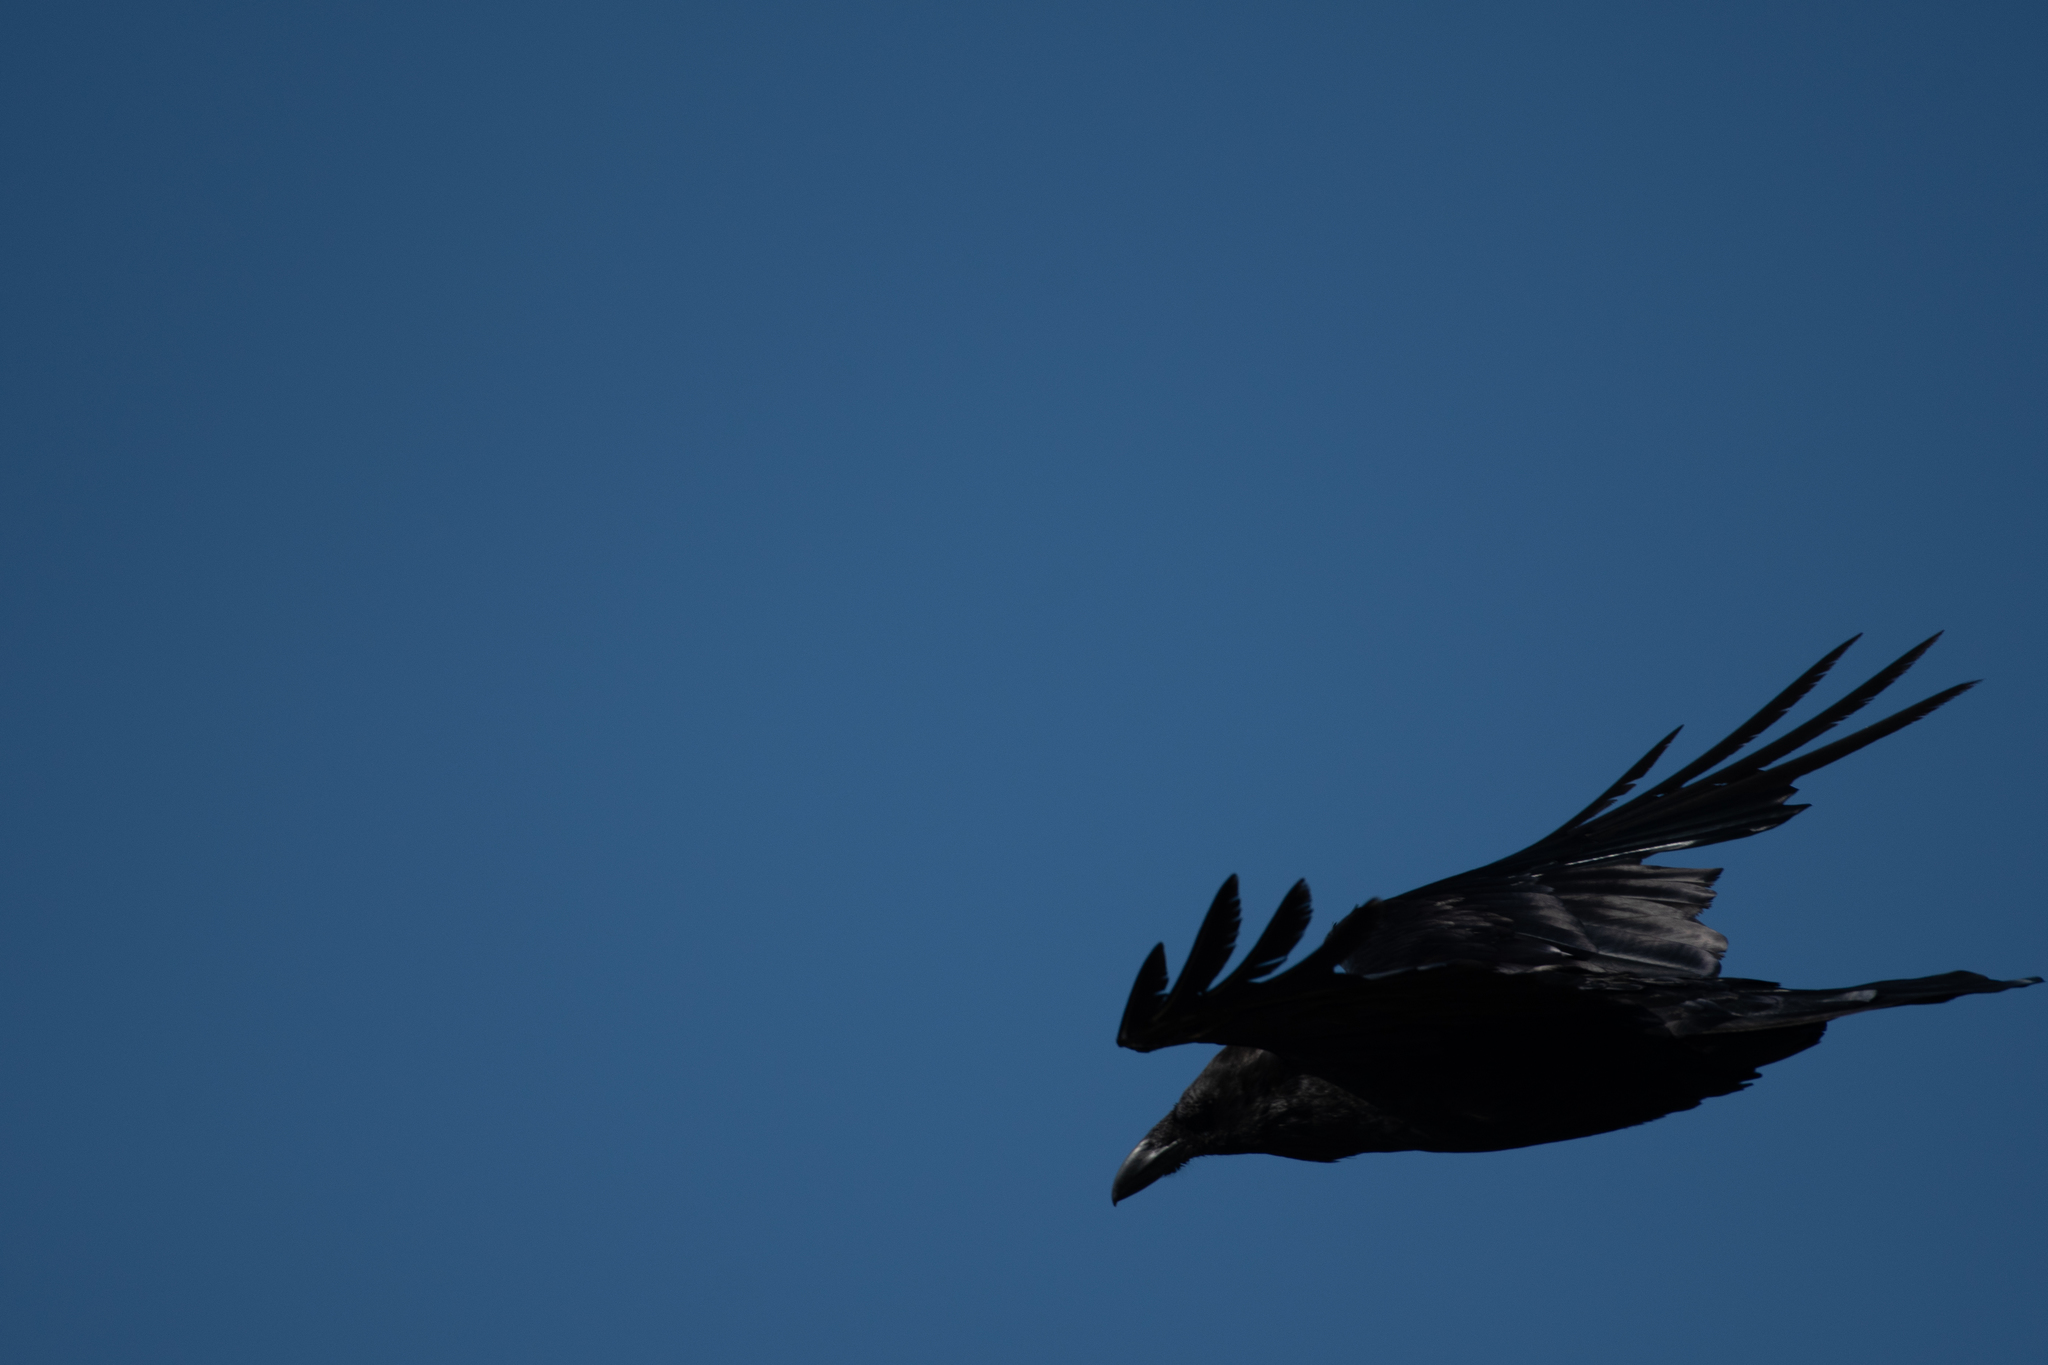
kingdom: Animalia
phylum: Chordata
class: Aves
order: Passeriformes
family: Corvidae
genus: Corvus
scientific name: Corvus corax
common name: Common raven
